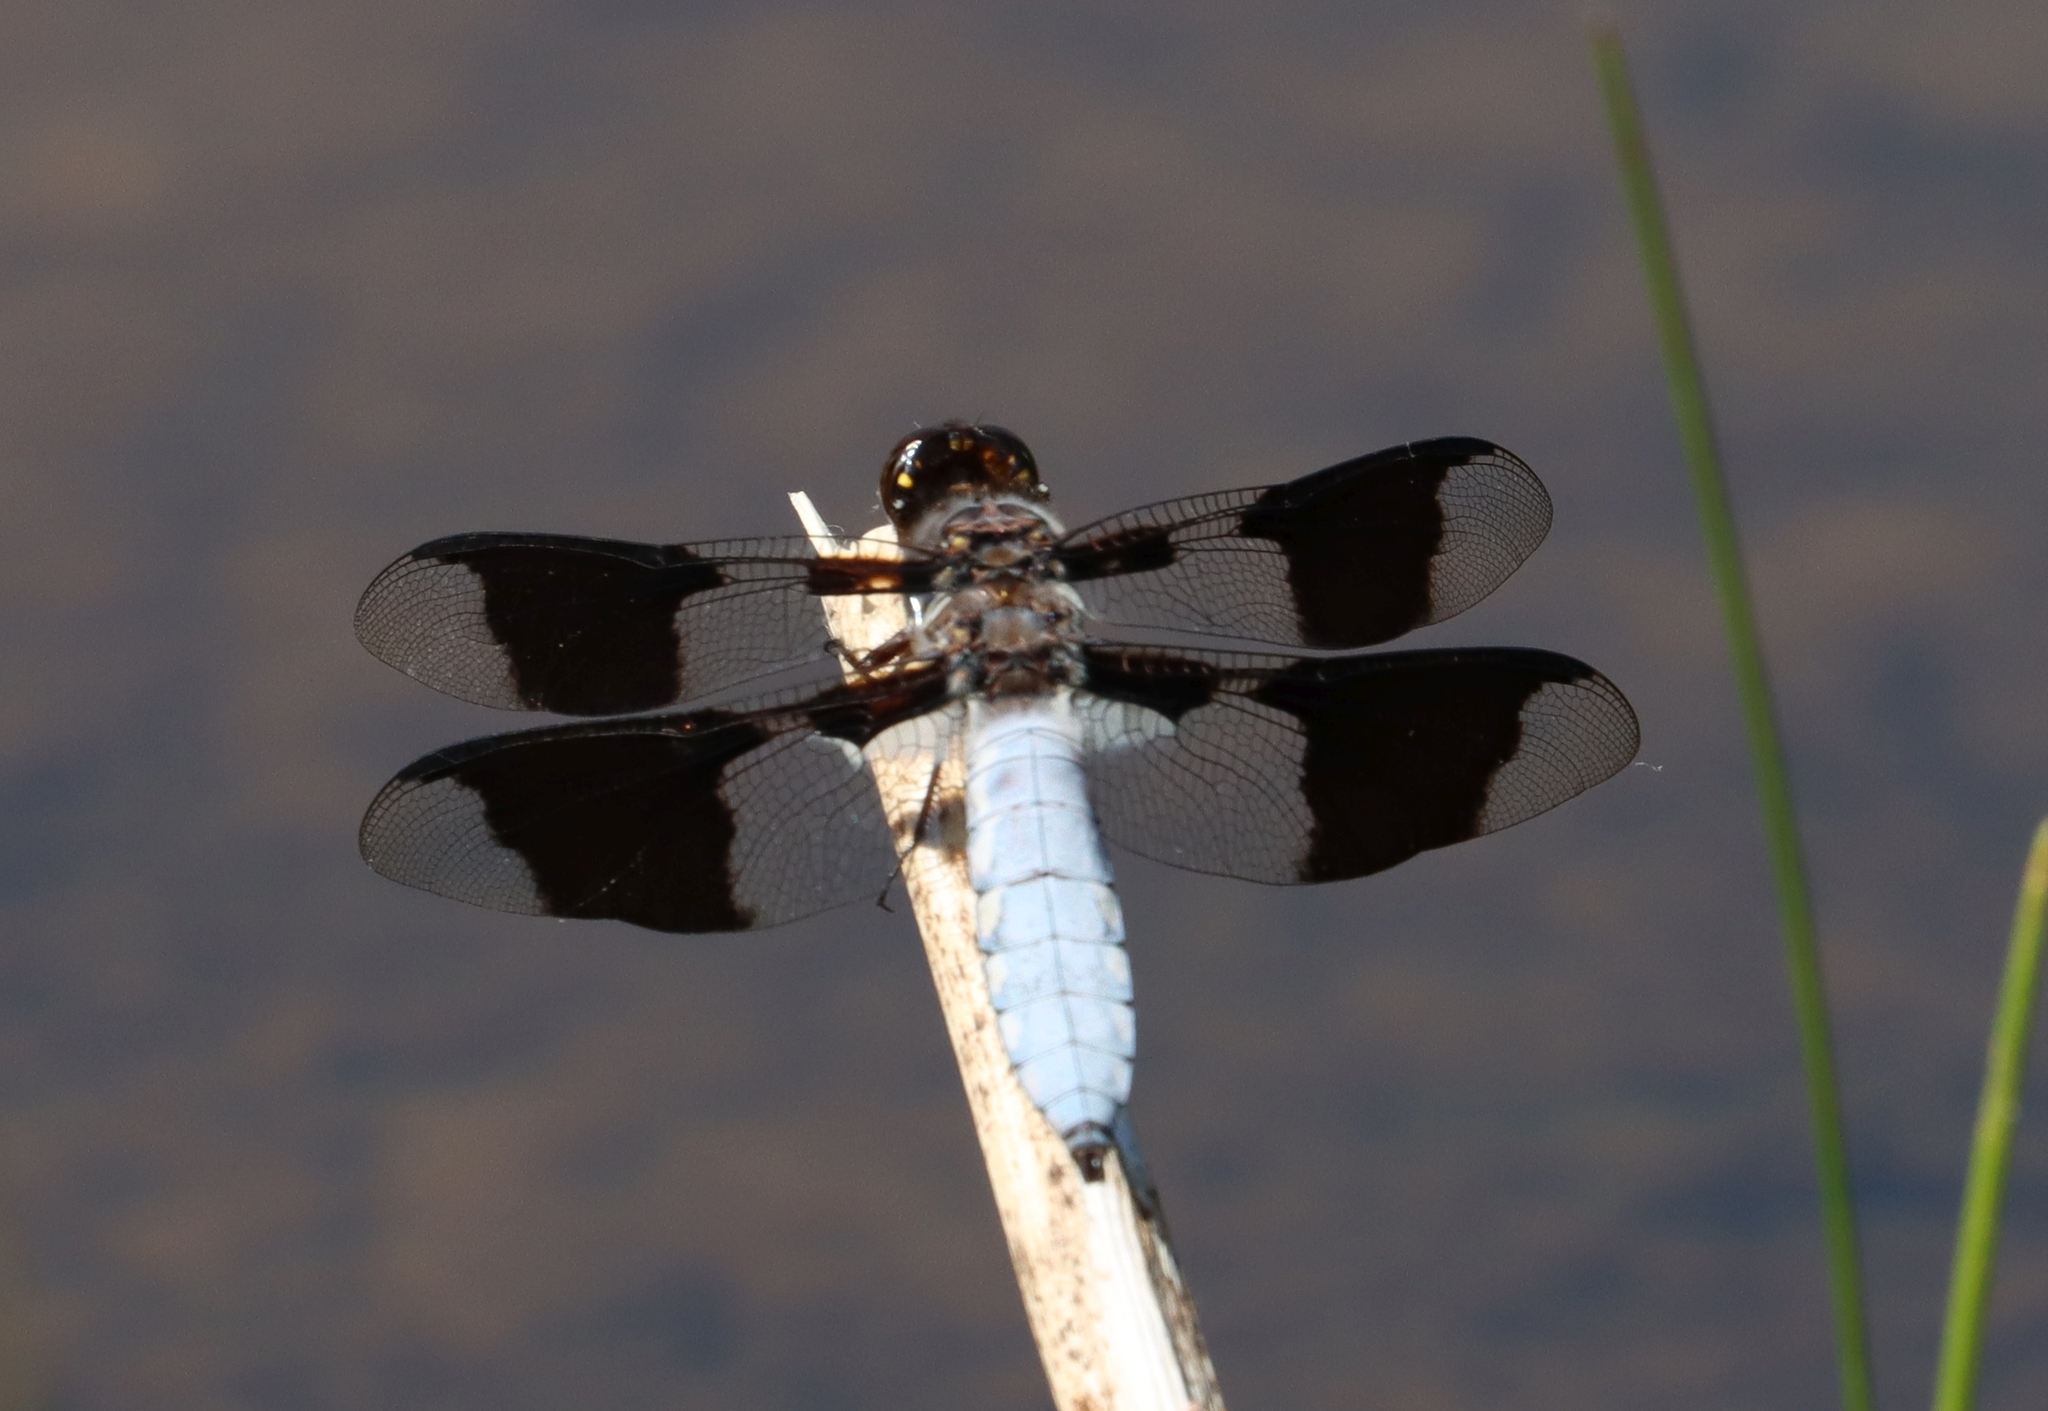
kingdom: Animalia
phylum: Arthropoda
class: Insecta
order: Odonata
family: Libellulidae
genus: Plathemis
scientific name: Plathemis lydia
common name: Common whitetail
